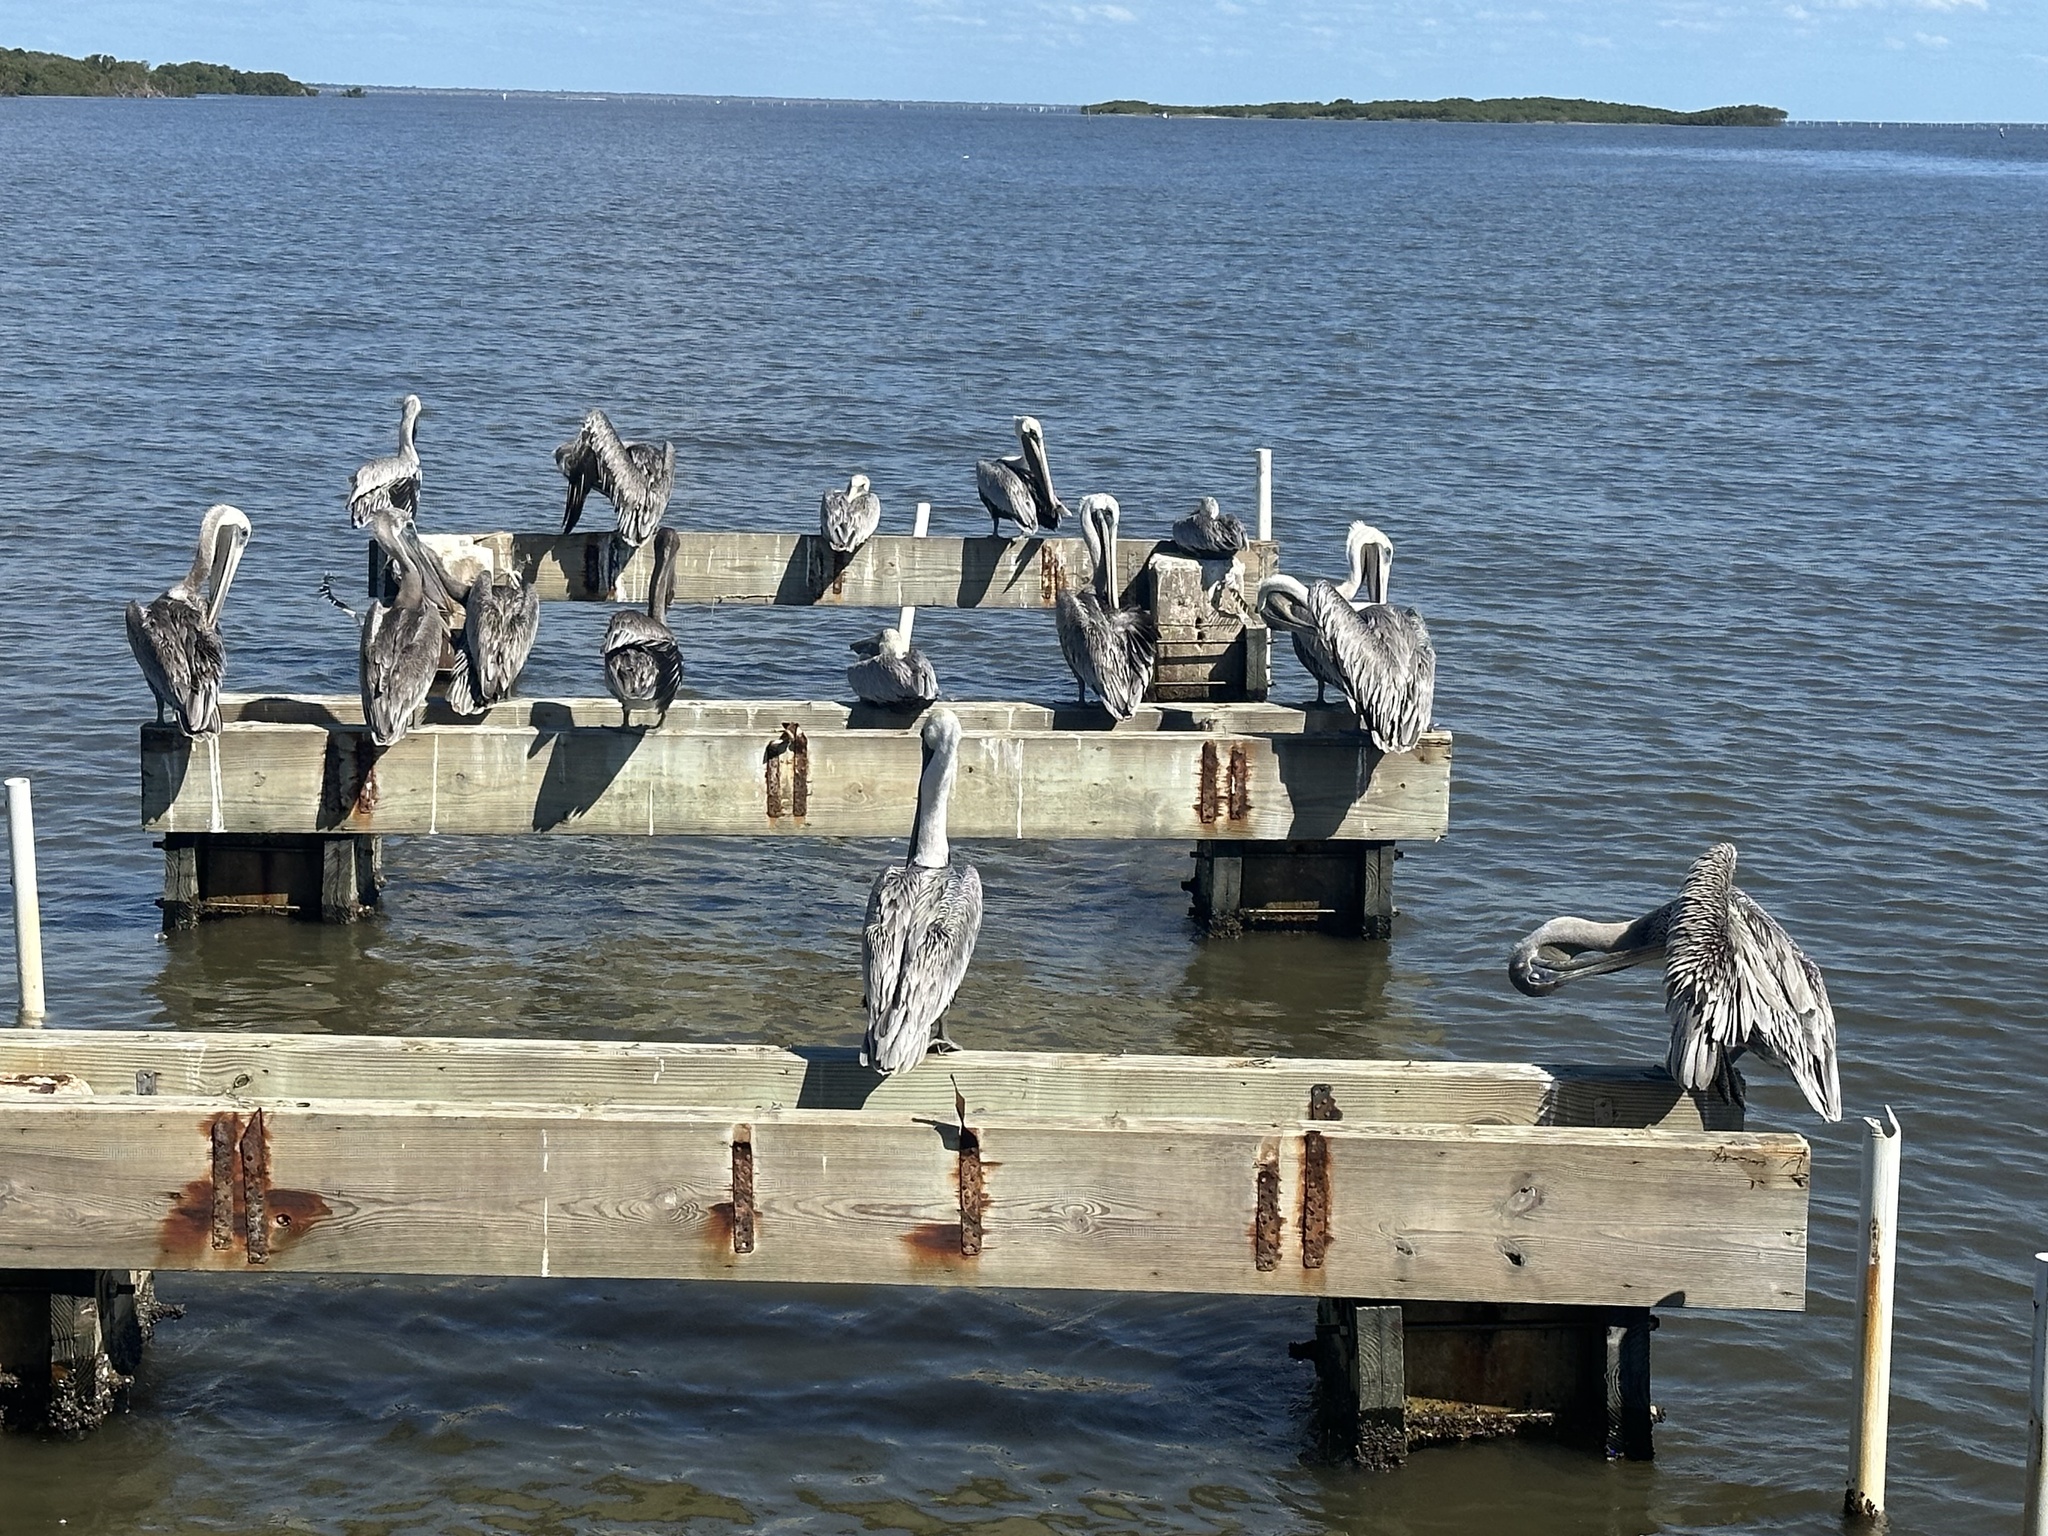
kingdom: Animalia
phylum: Chordata
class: Aves
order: Pelecaniformes
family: Pelecanidae
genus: Pelecanus
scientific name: Pelecanus occidentalis
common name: Brown pelican
